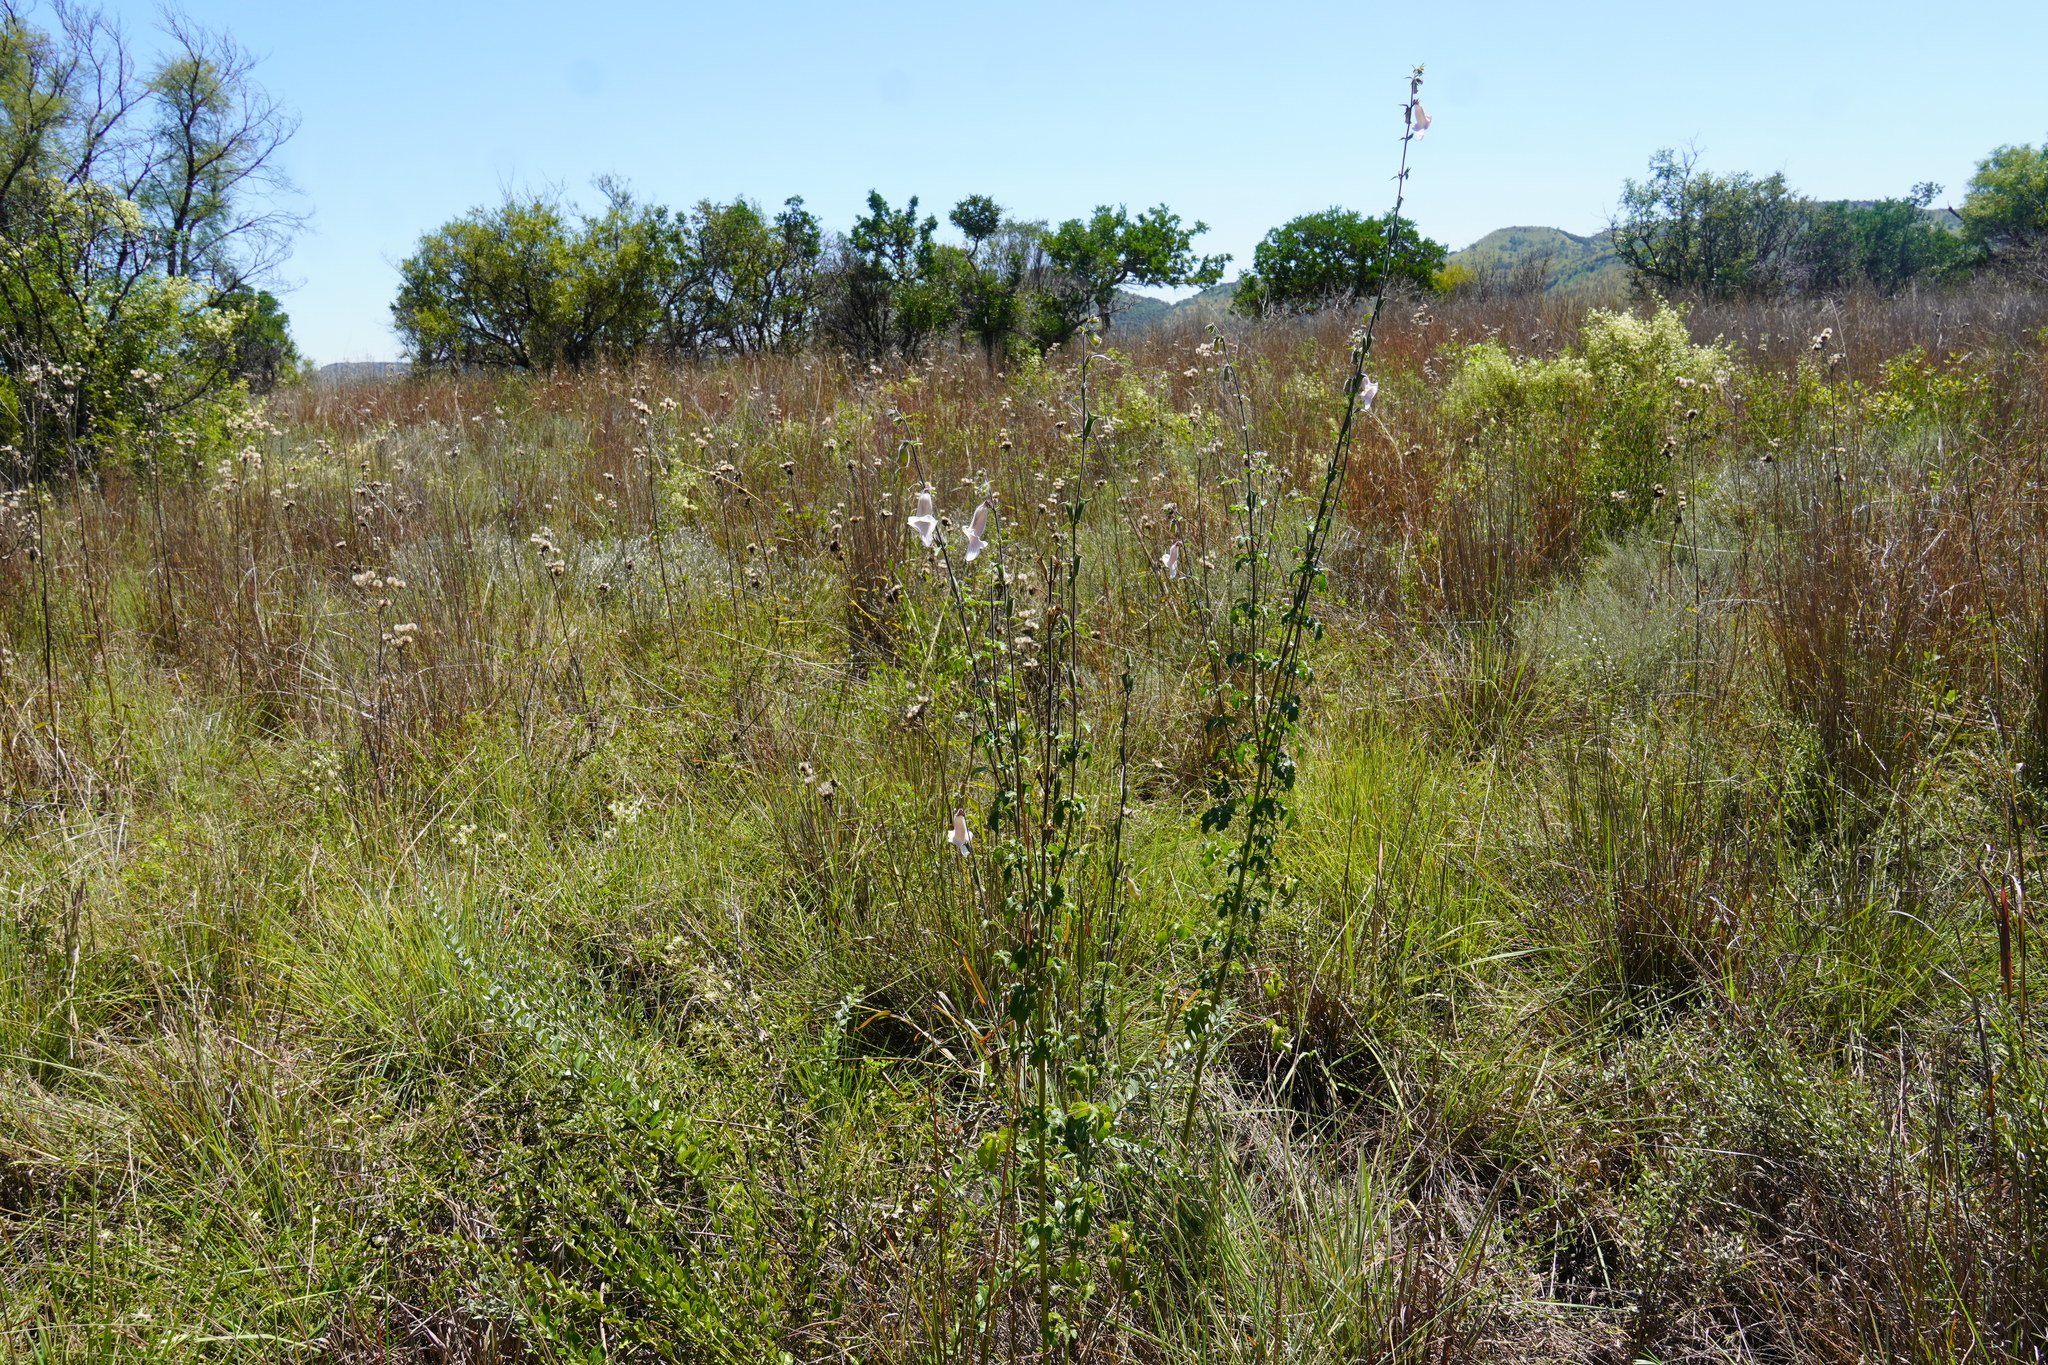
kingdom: Plantae
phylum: Tracheophyta
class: Magnoliopsida
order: Lamiales
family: Pedaliaceae
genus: Sesamum
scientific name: Sesamum trilobum
